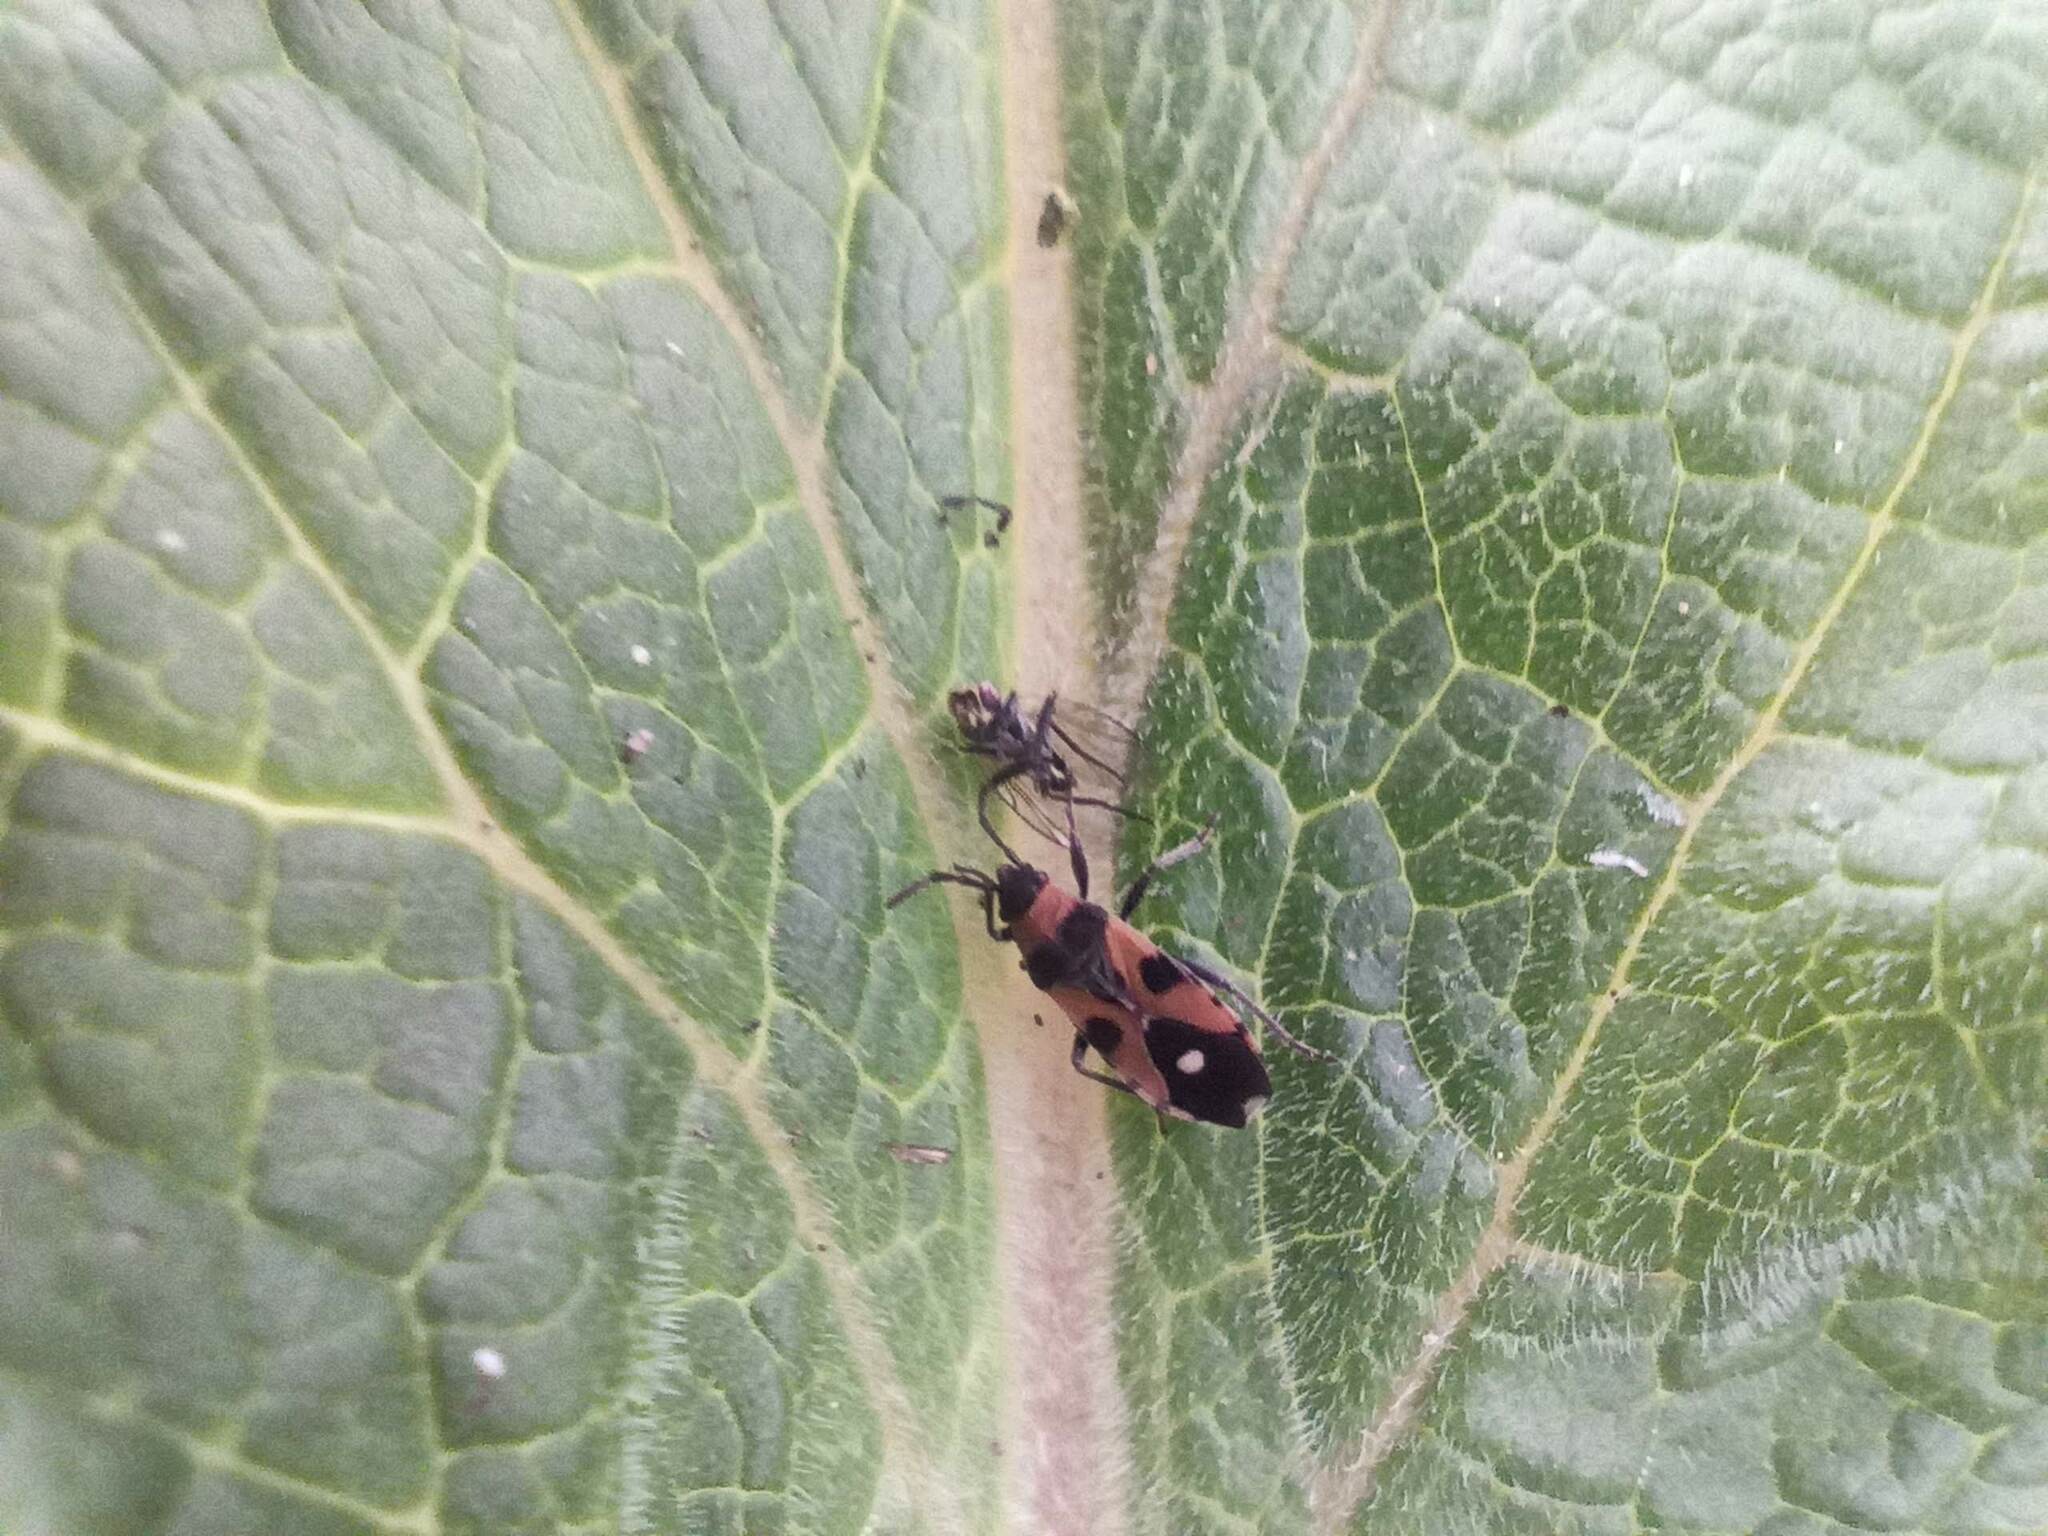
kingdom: Animalia
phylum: Arthropoda
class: Insecta
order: Hemiptera
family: Lygaeidae
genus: Horvathiolus
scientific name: Horvathiolus superbus
